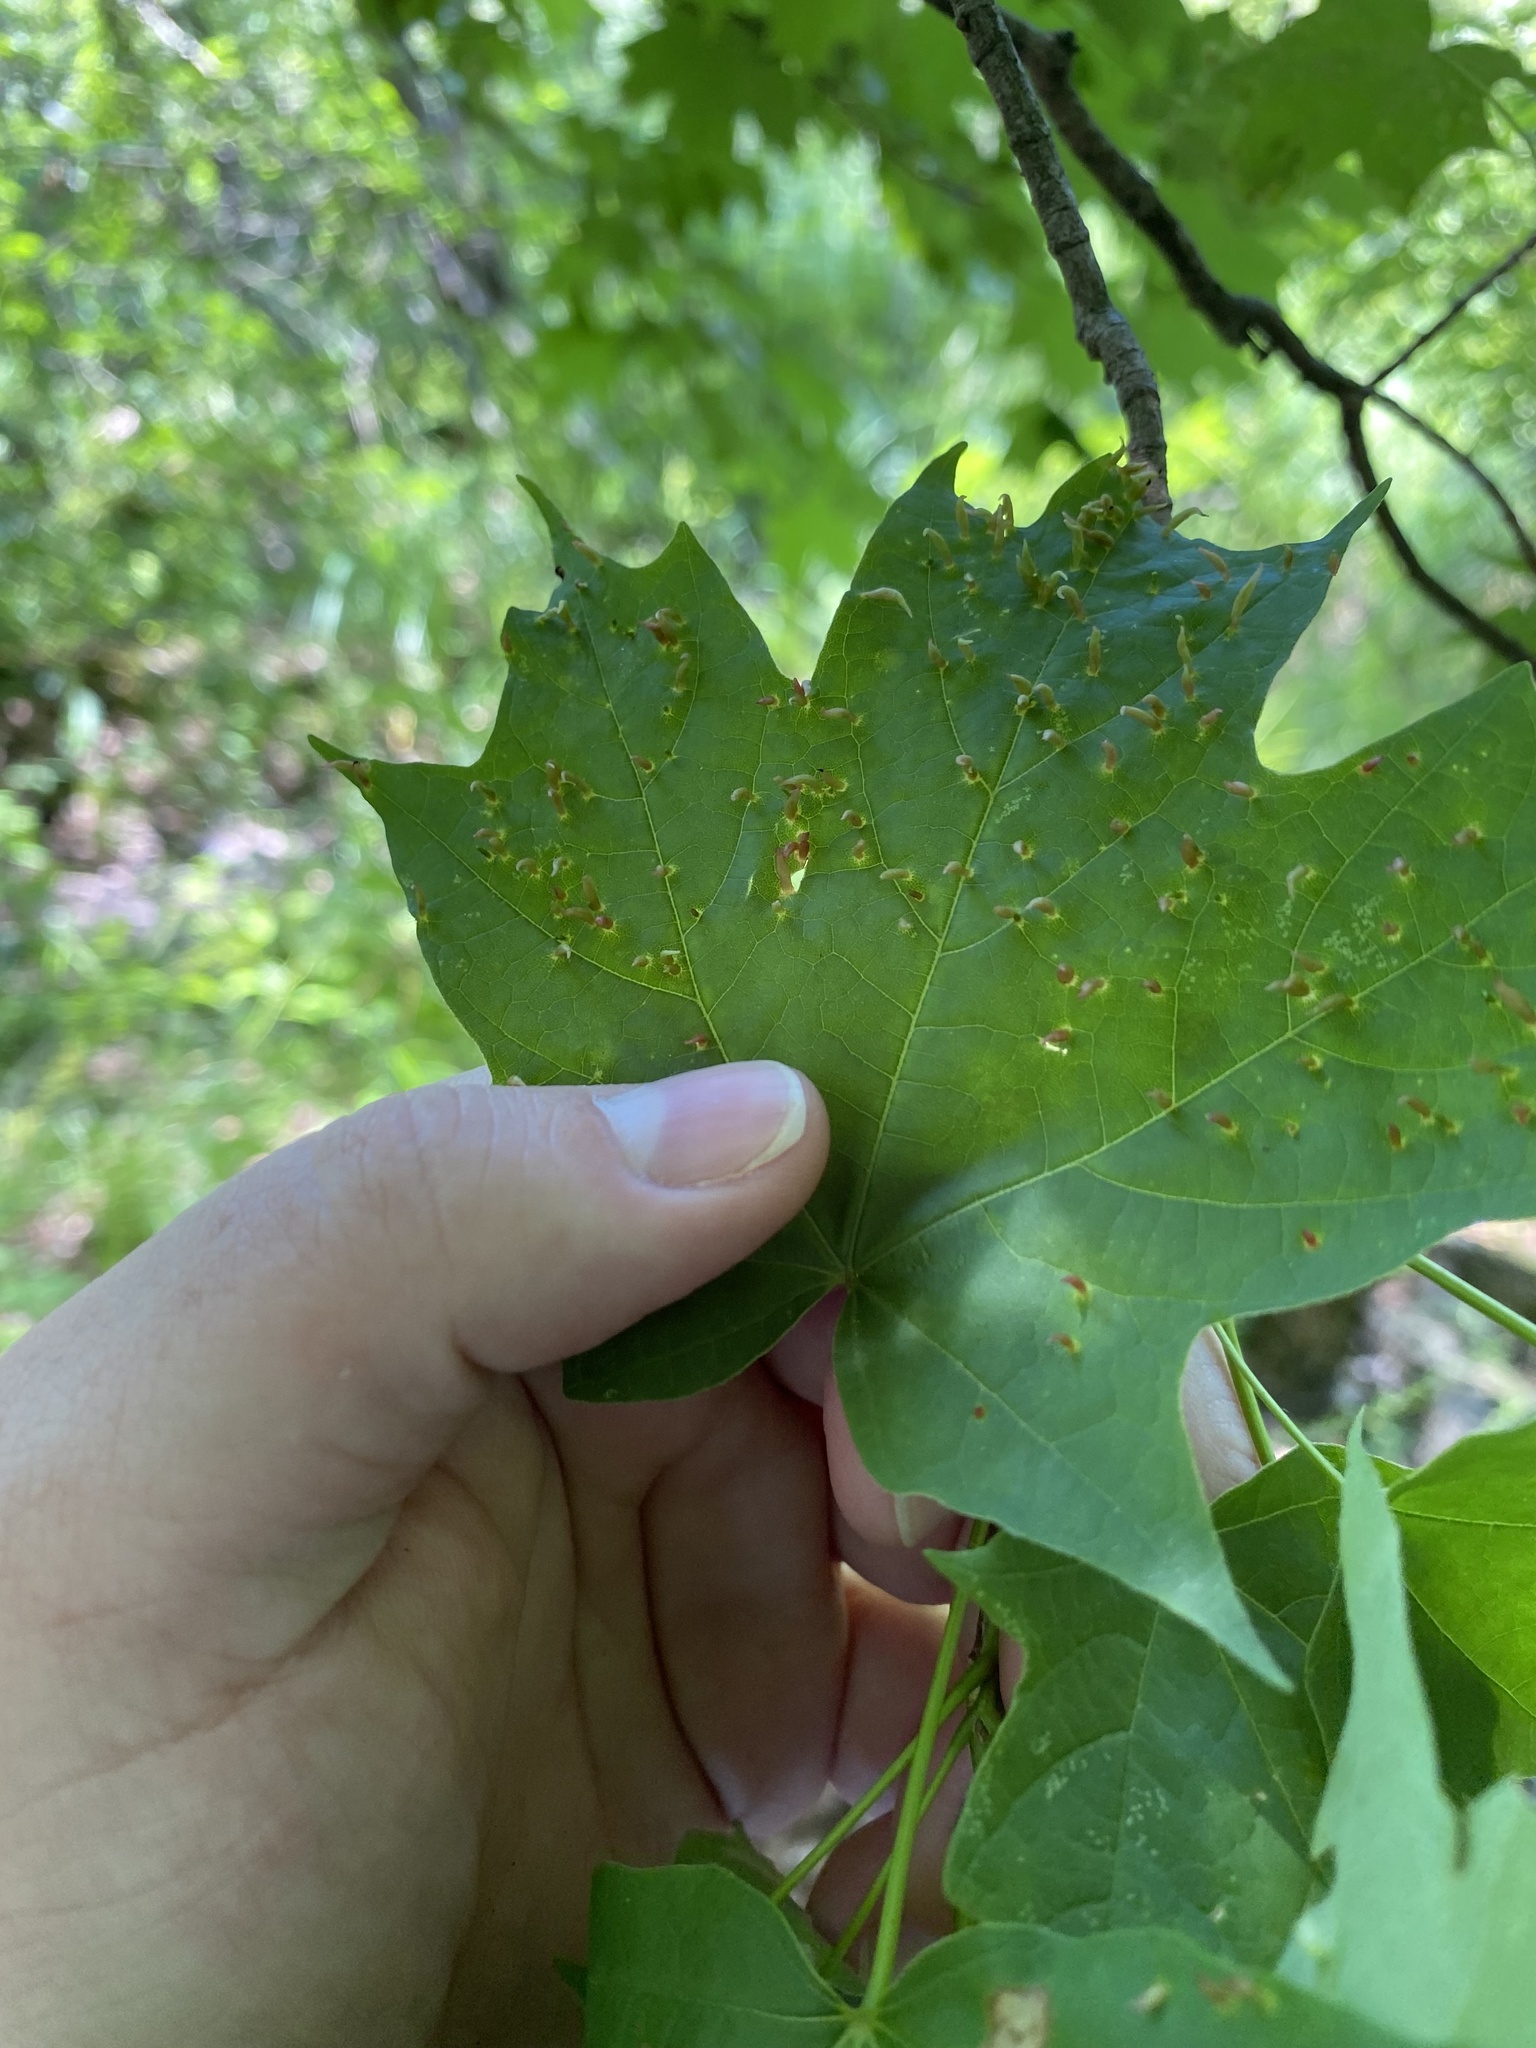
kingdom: Animalia
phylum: Arthropoda
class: Arachnida
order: Trombidiformes
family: Eriophyidae
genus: Vasates
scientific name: Vasates aceriscrumena
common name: Maple spindle gall mite
